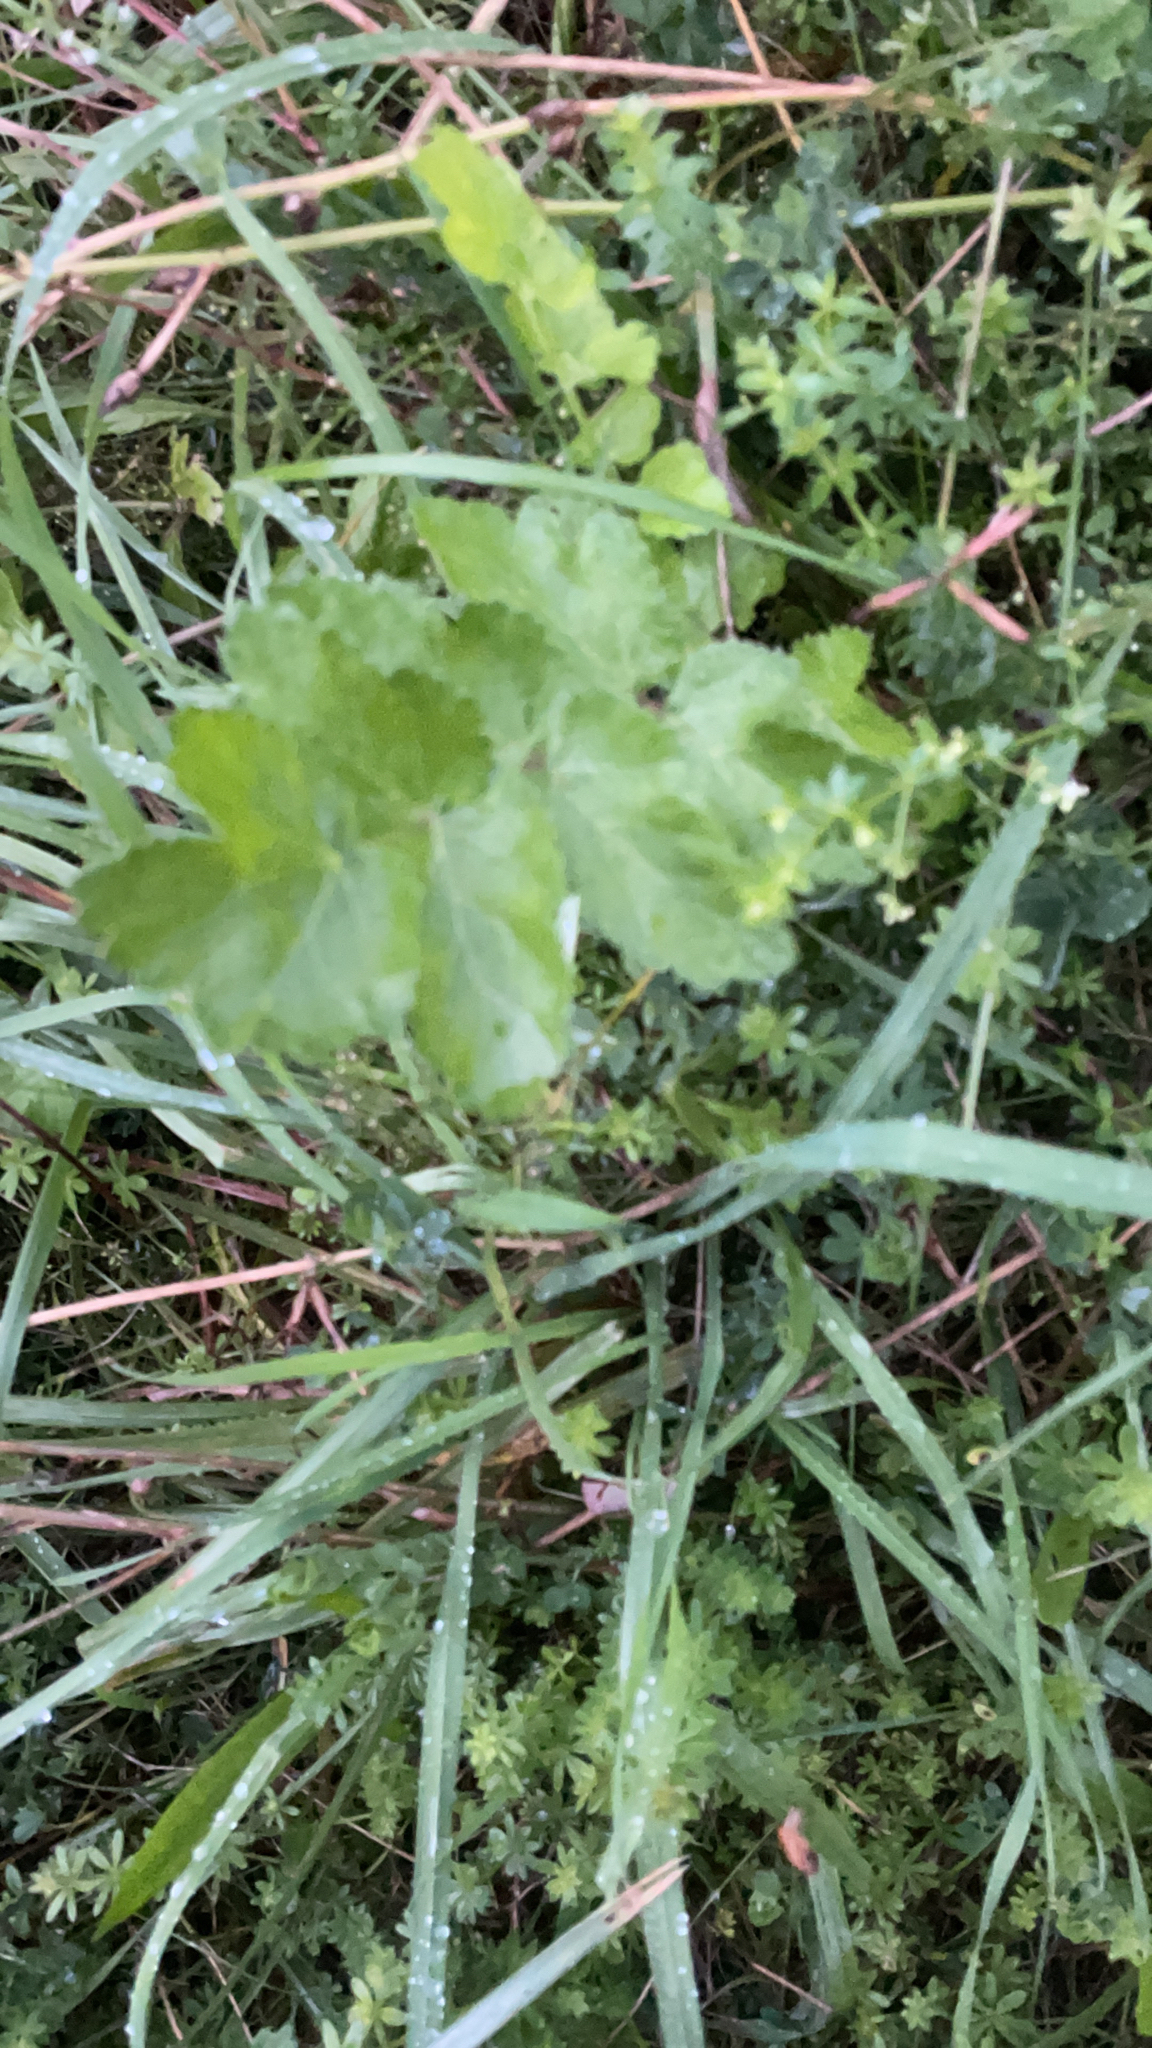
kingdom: Plantae
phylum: Tracheophyta
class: Magnoliopsida
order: Apiales
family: Apiaceae
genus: Pastinaca
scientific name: Pastinaca sativa
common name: Wild parsnip
